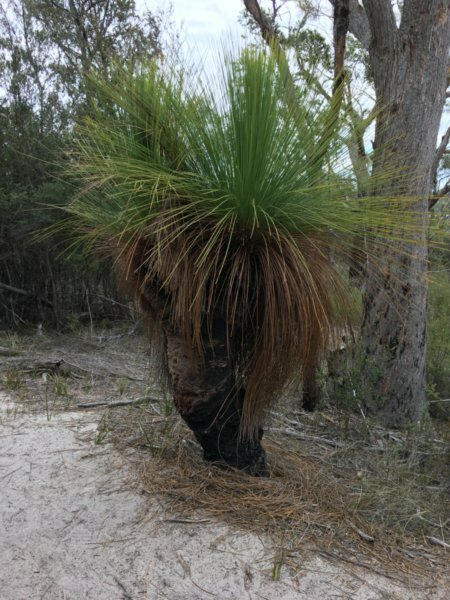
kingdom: Plantae
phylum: Tracheophyta
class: Liliopsida
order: Asparagales
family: Asphodelaceae
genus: Xanthorrhoea
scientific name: Xanthorrhoea australis
